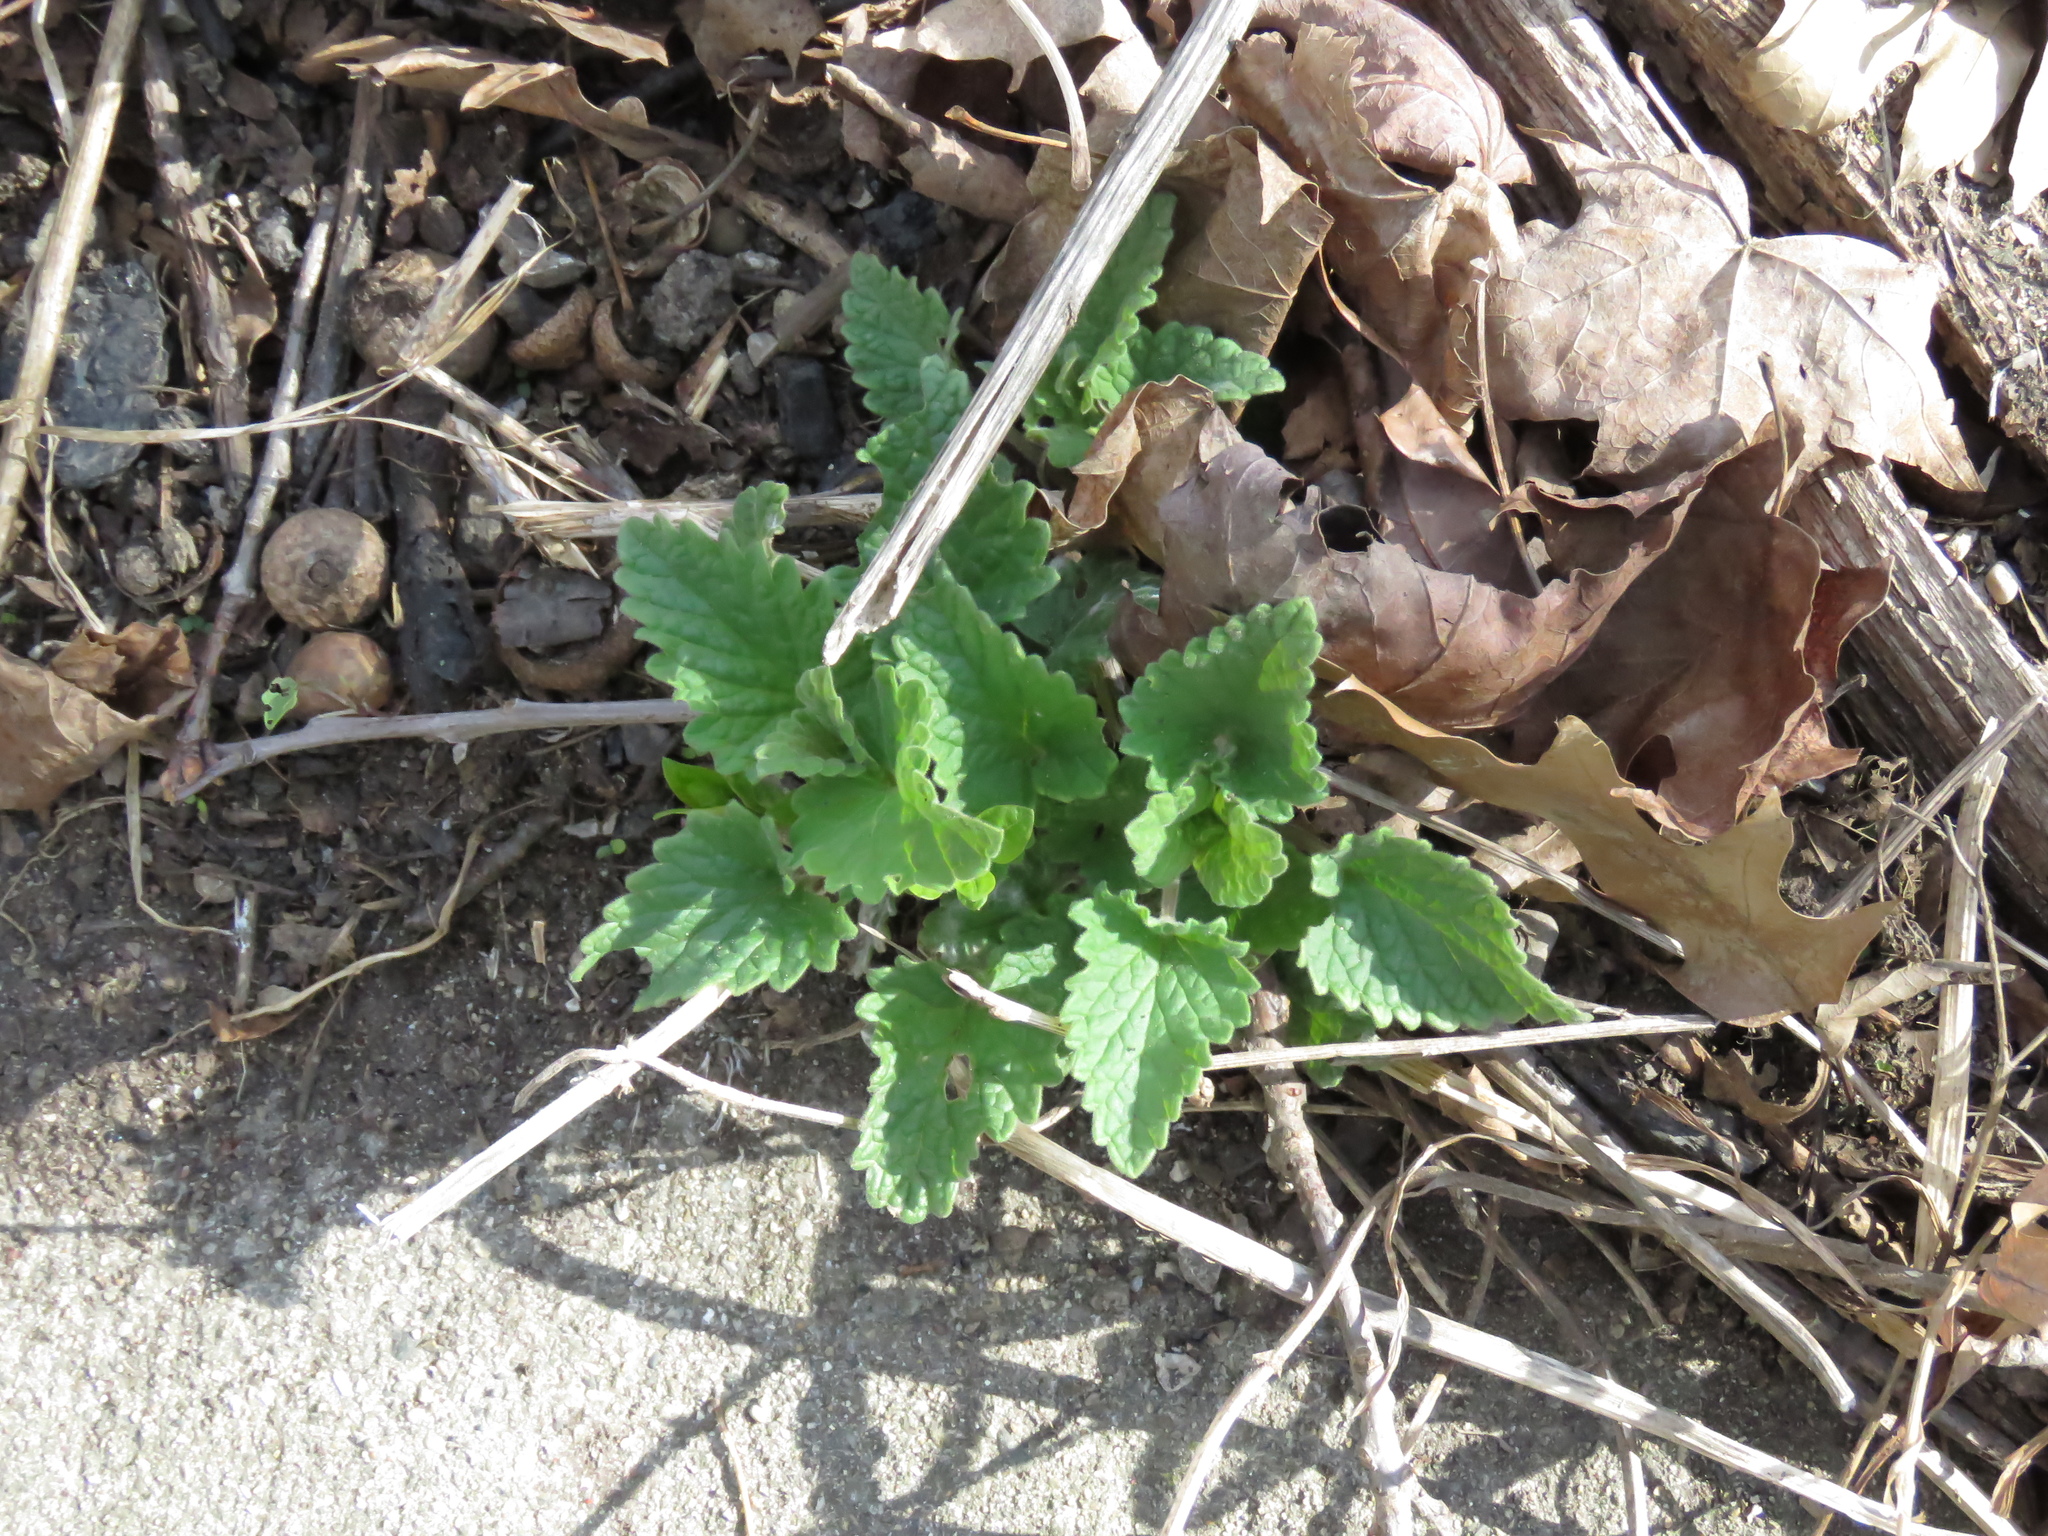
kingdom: Plantae
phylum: Tracheophyta
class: Magnoliopsida
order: Lamiales
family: Lamiaceae
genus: Nepeta
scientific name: Nepeta cataria
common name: Catnip
